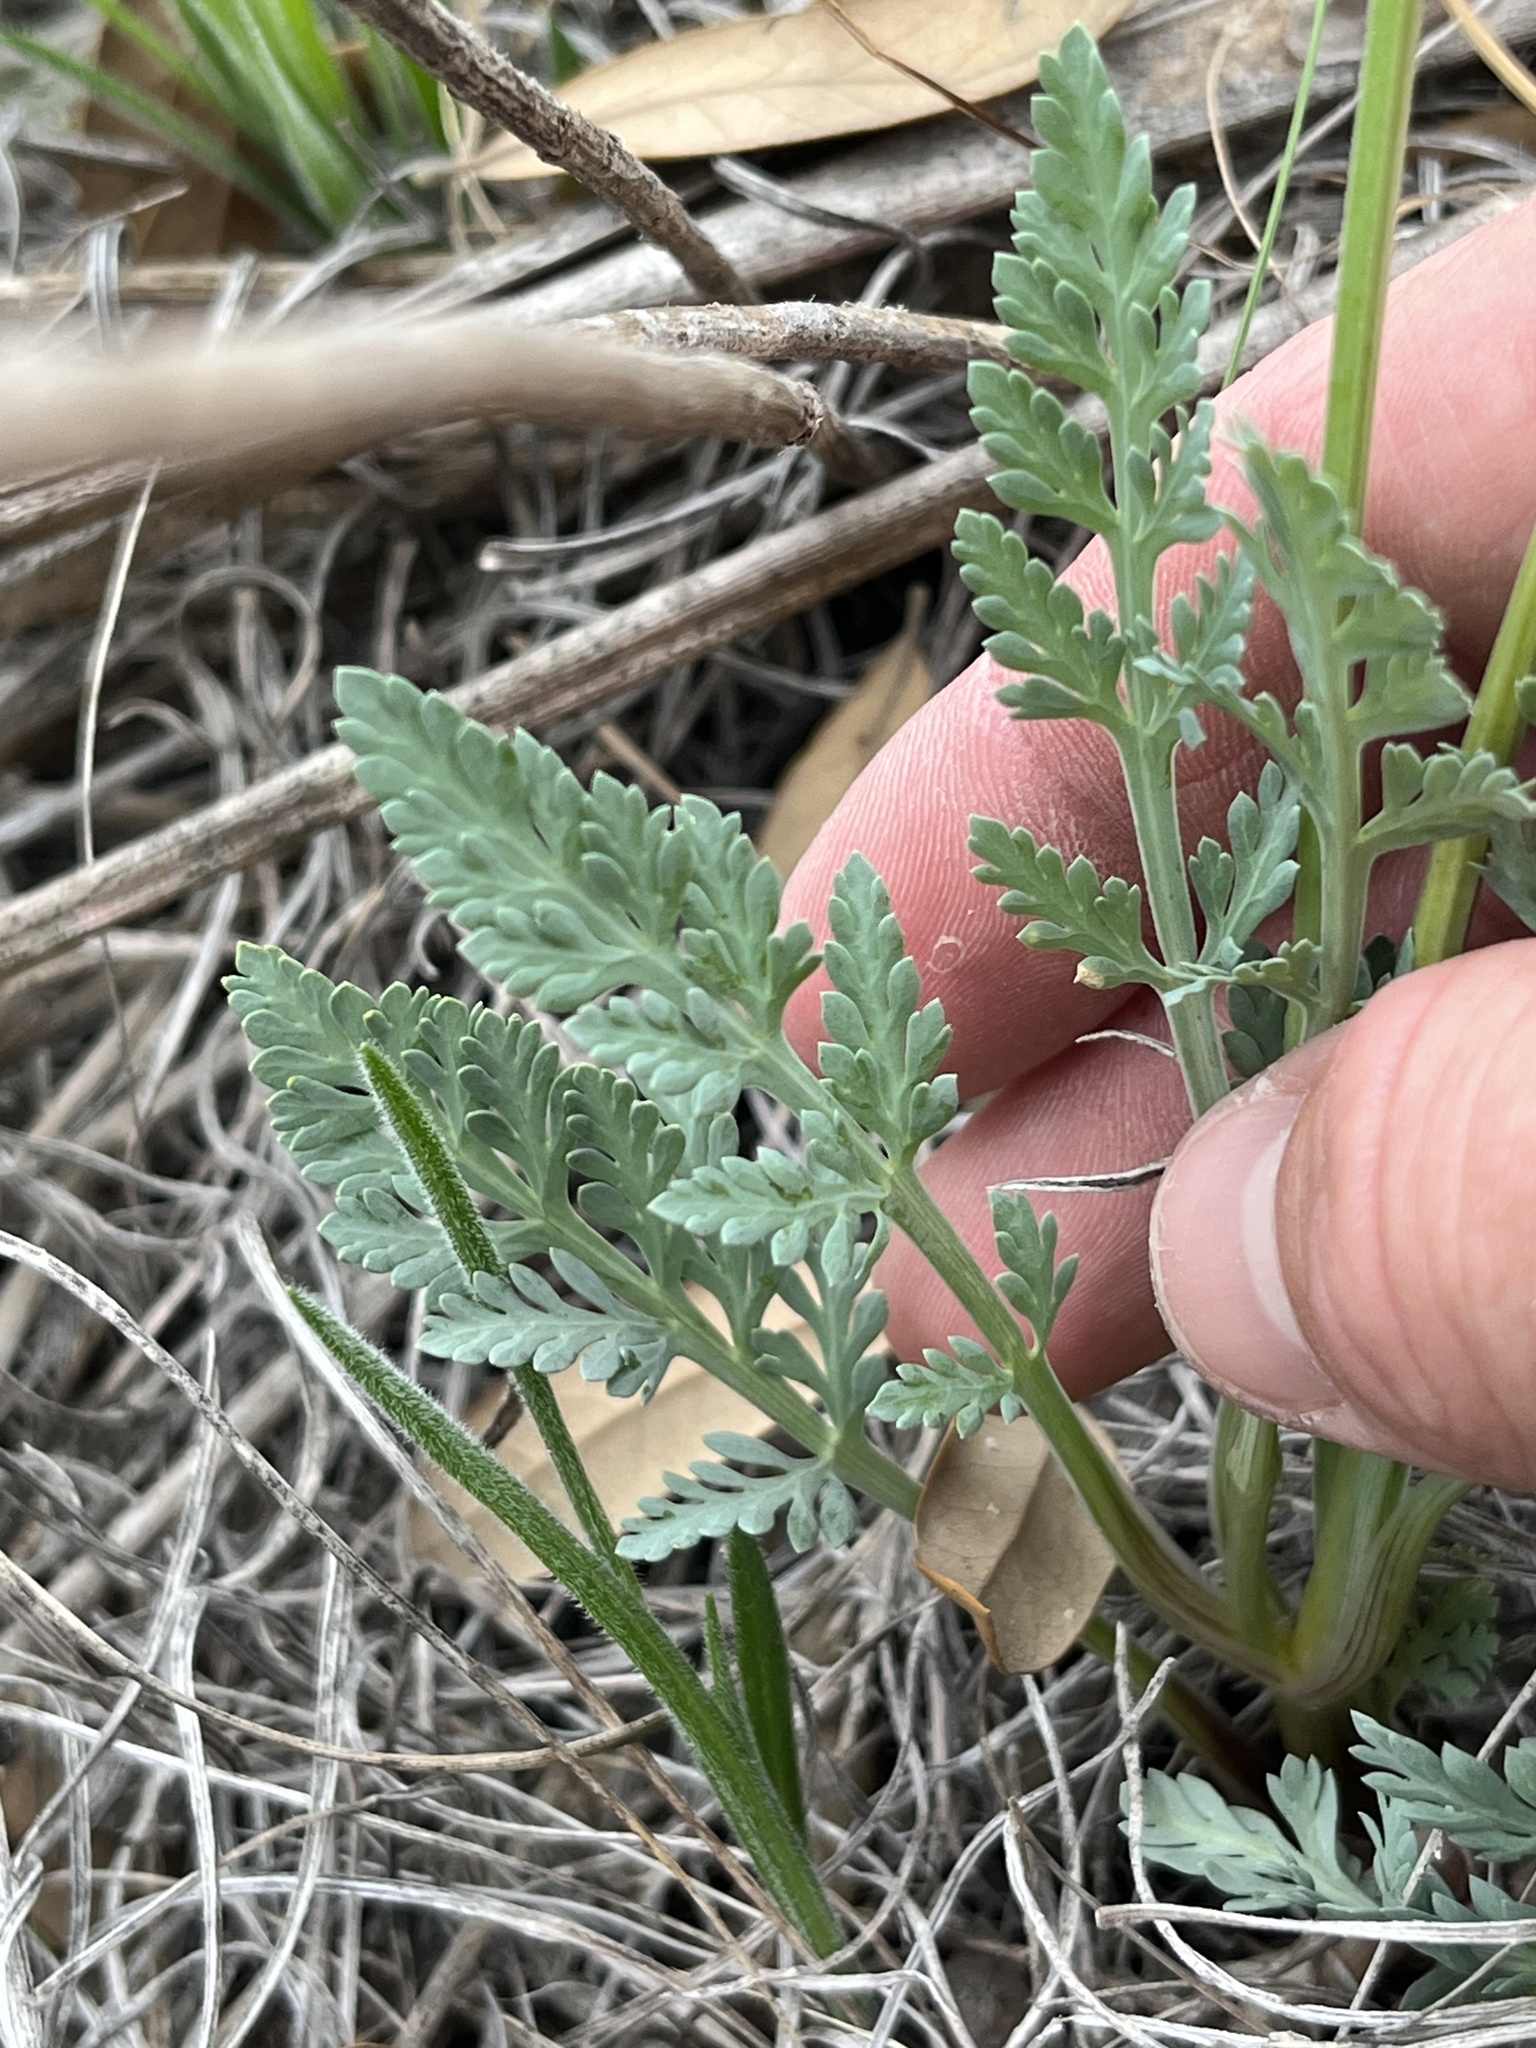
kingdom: Plantae
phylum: Tracheophyta
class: Magnoliopsida
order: Apiales
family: Apiaceae
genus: Vesper
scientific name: Vesper macrorhizus
